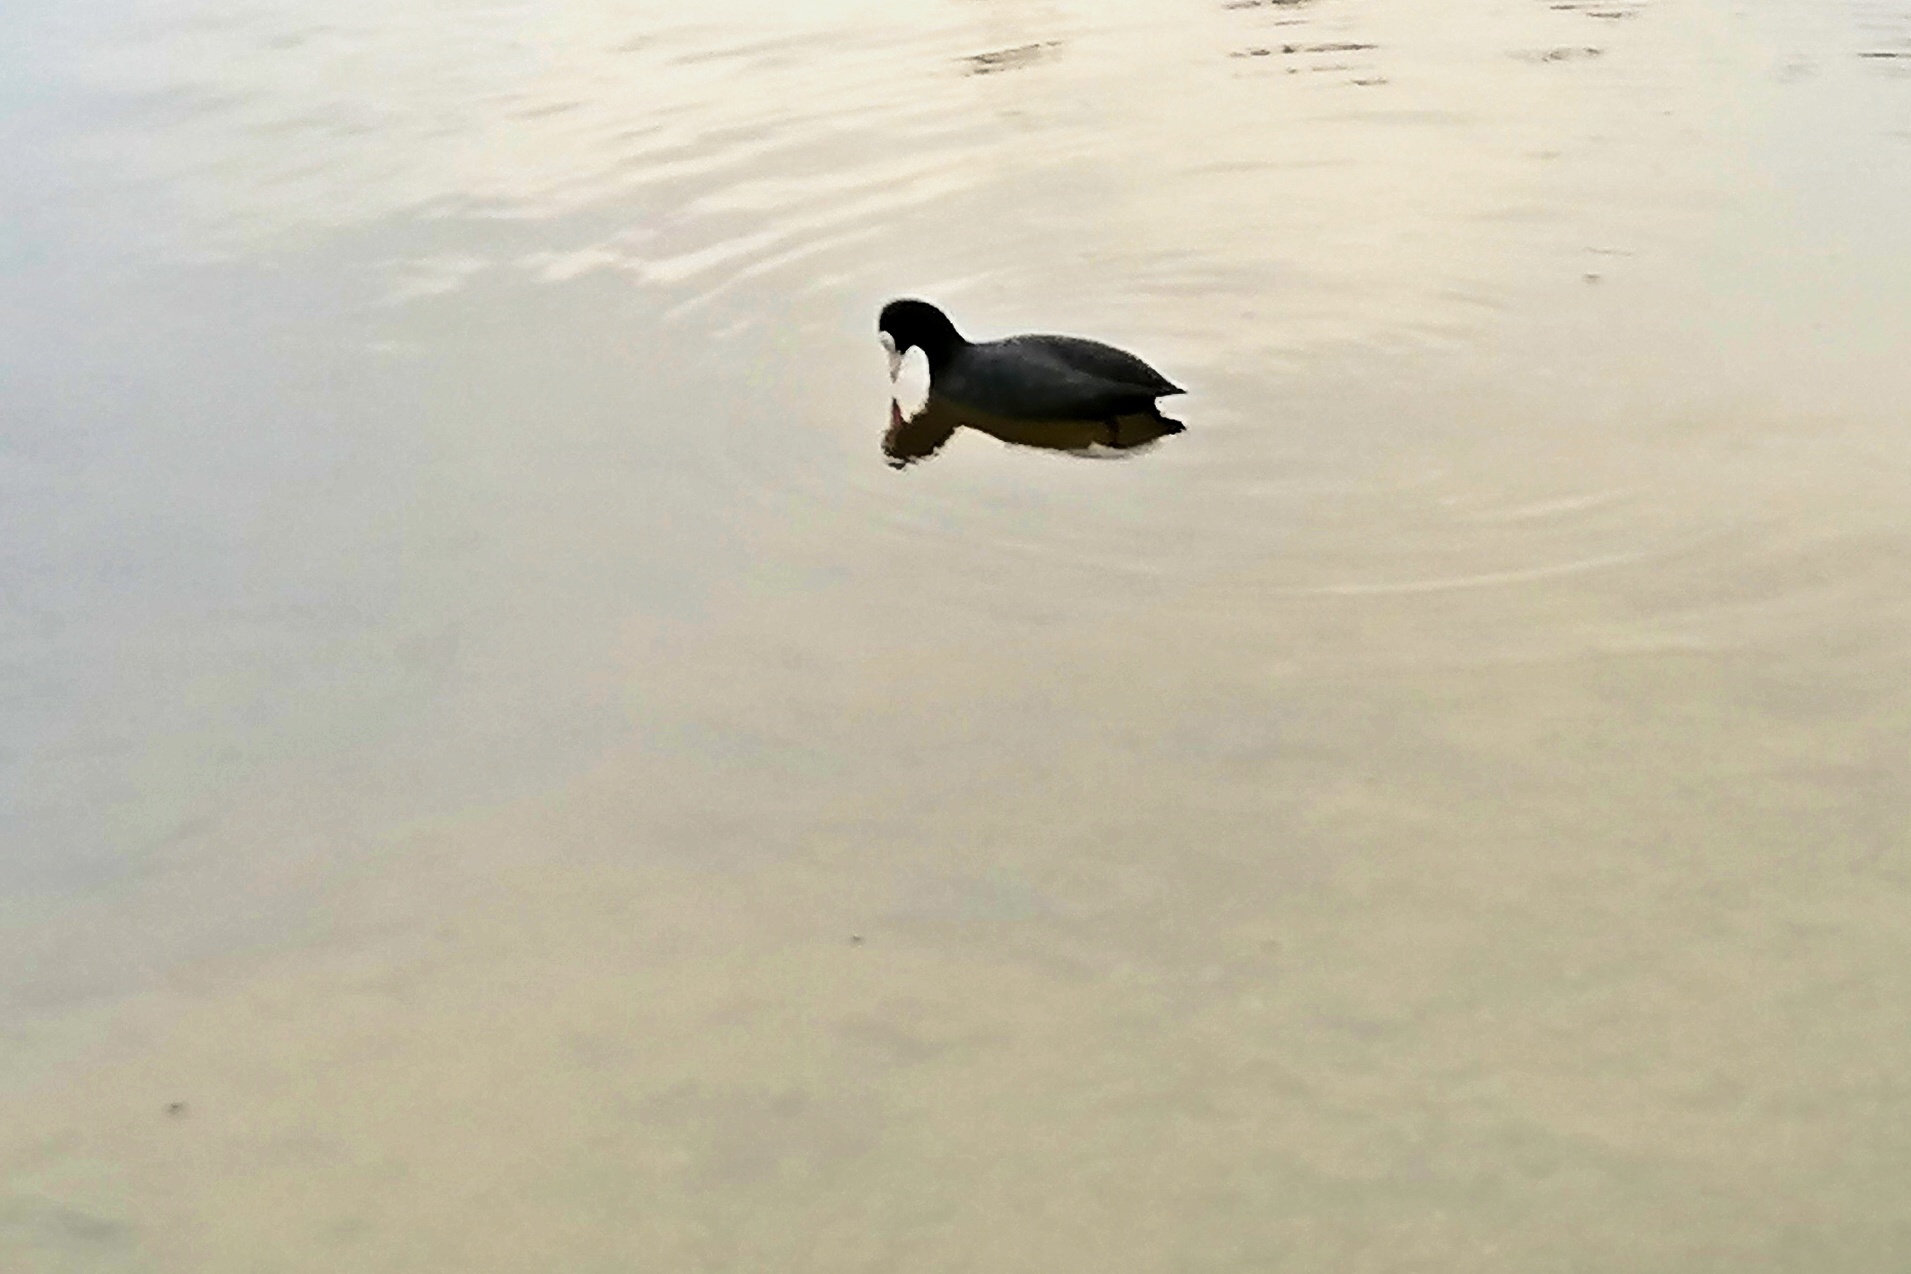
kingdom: Animalia
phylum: Chordata
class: Aves
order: Gruiformes
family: Rallidae
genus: Fulica
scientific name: Fulica atra
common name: Eurasian coot
